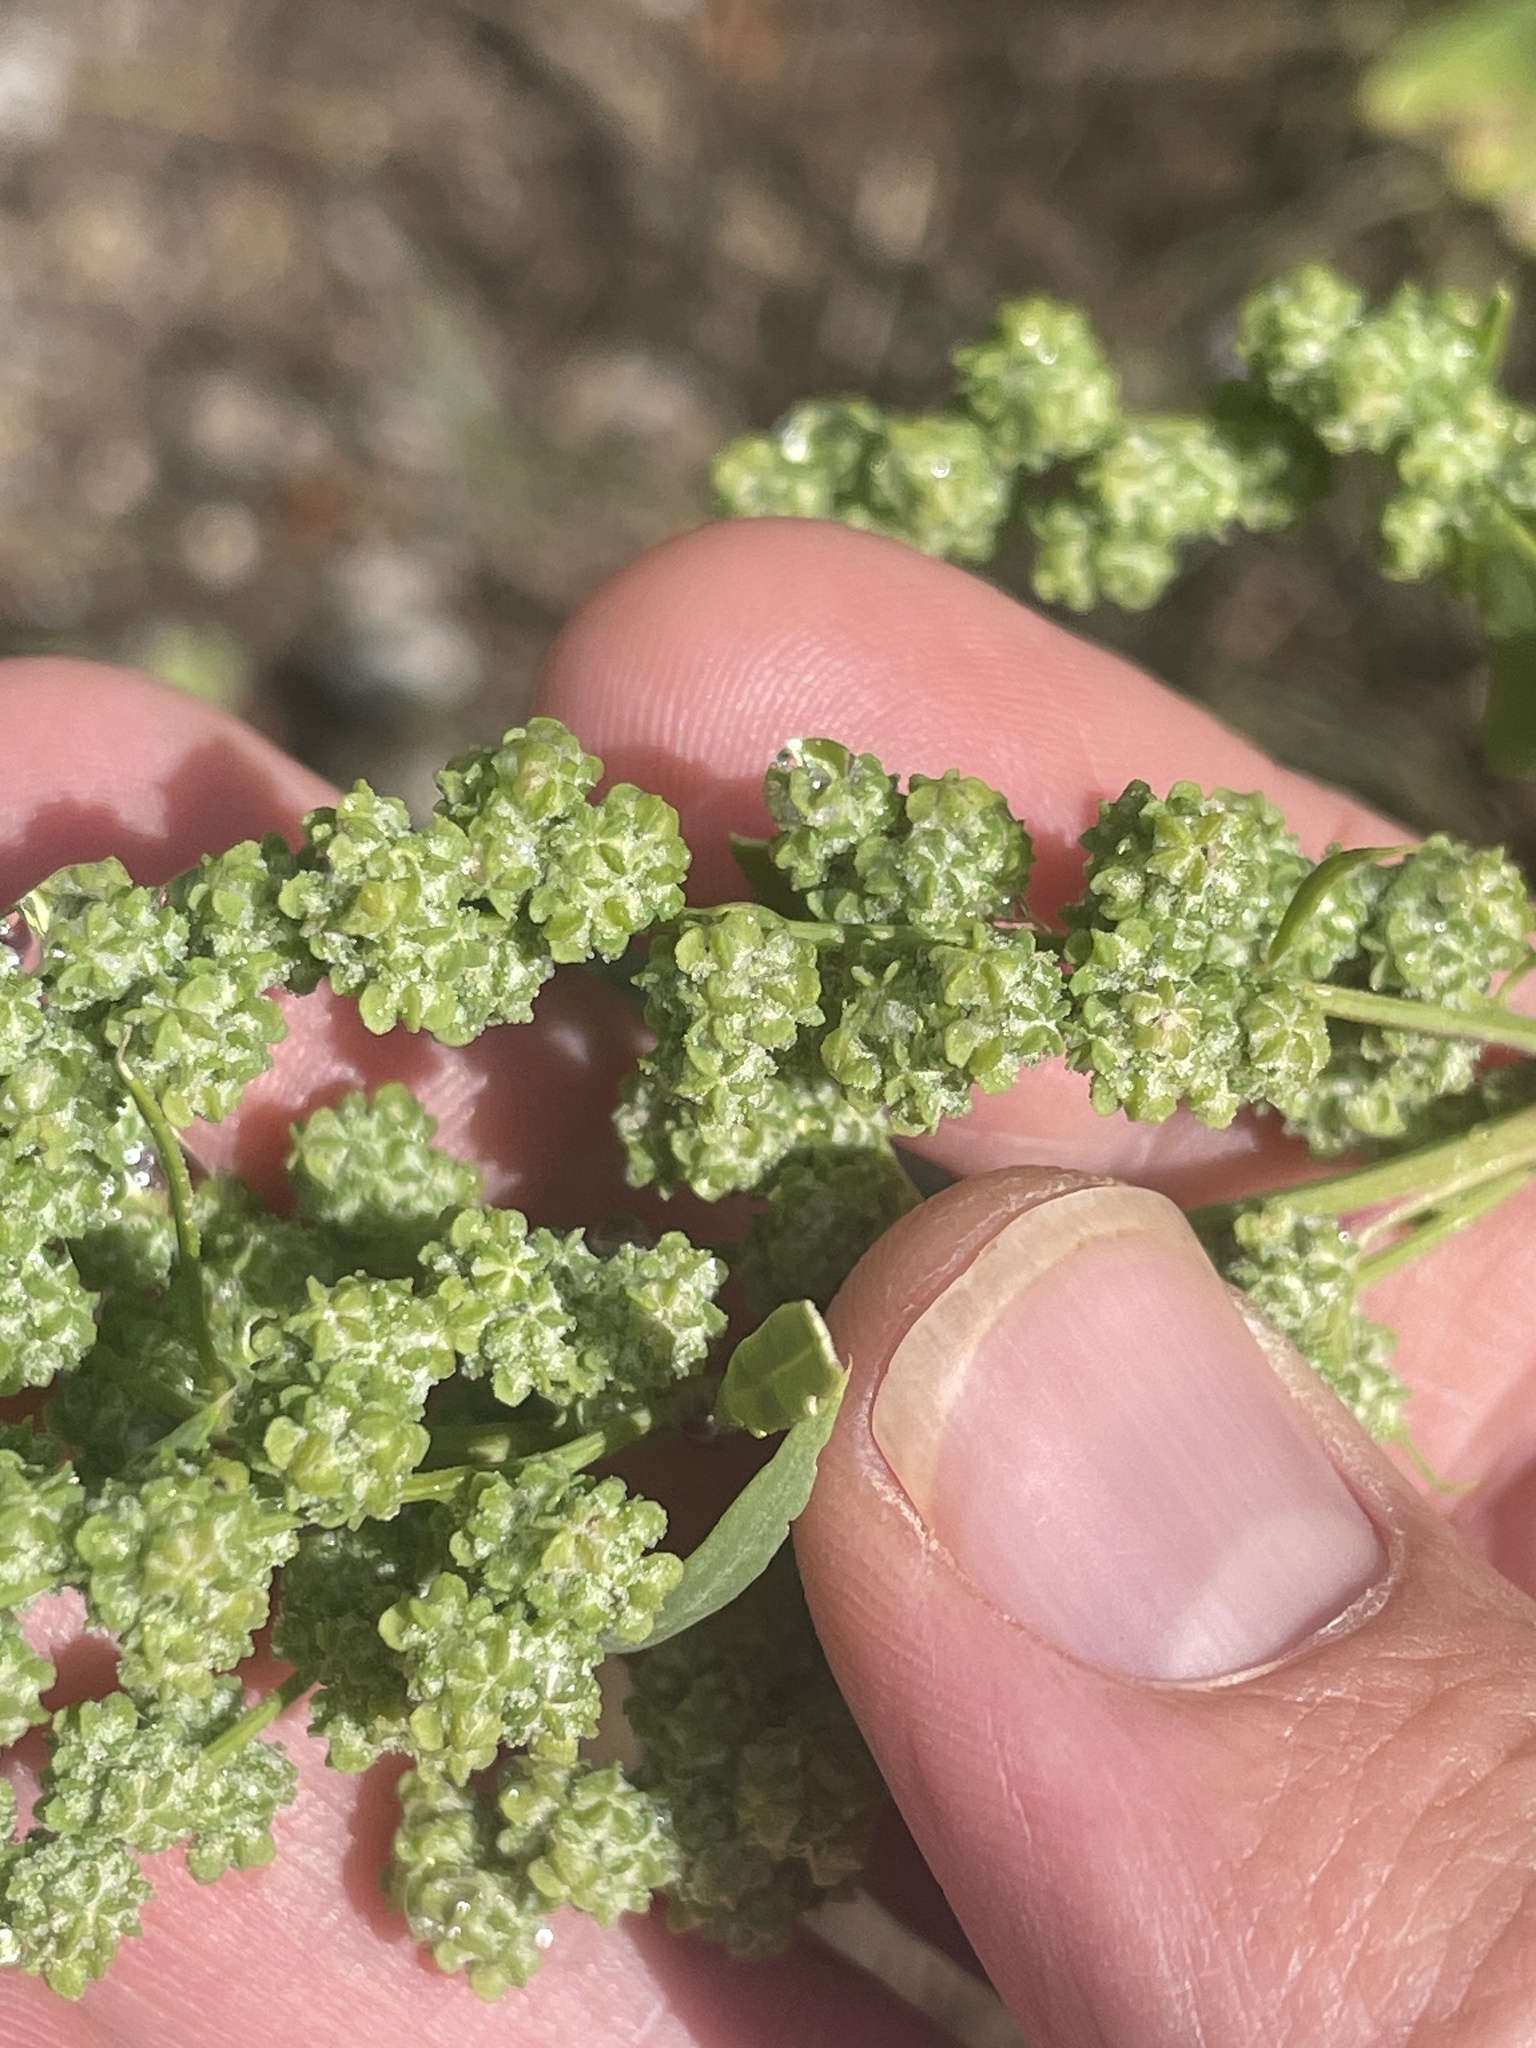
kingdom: Plantae
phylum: Tracheophyta
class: Magnoliopsida
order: Caryophyllales
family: Amaranthaceae
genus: Chenopodium
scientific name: Chenopodium album
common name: Fat-hen
